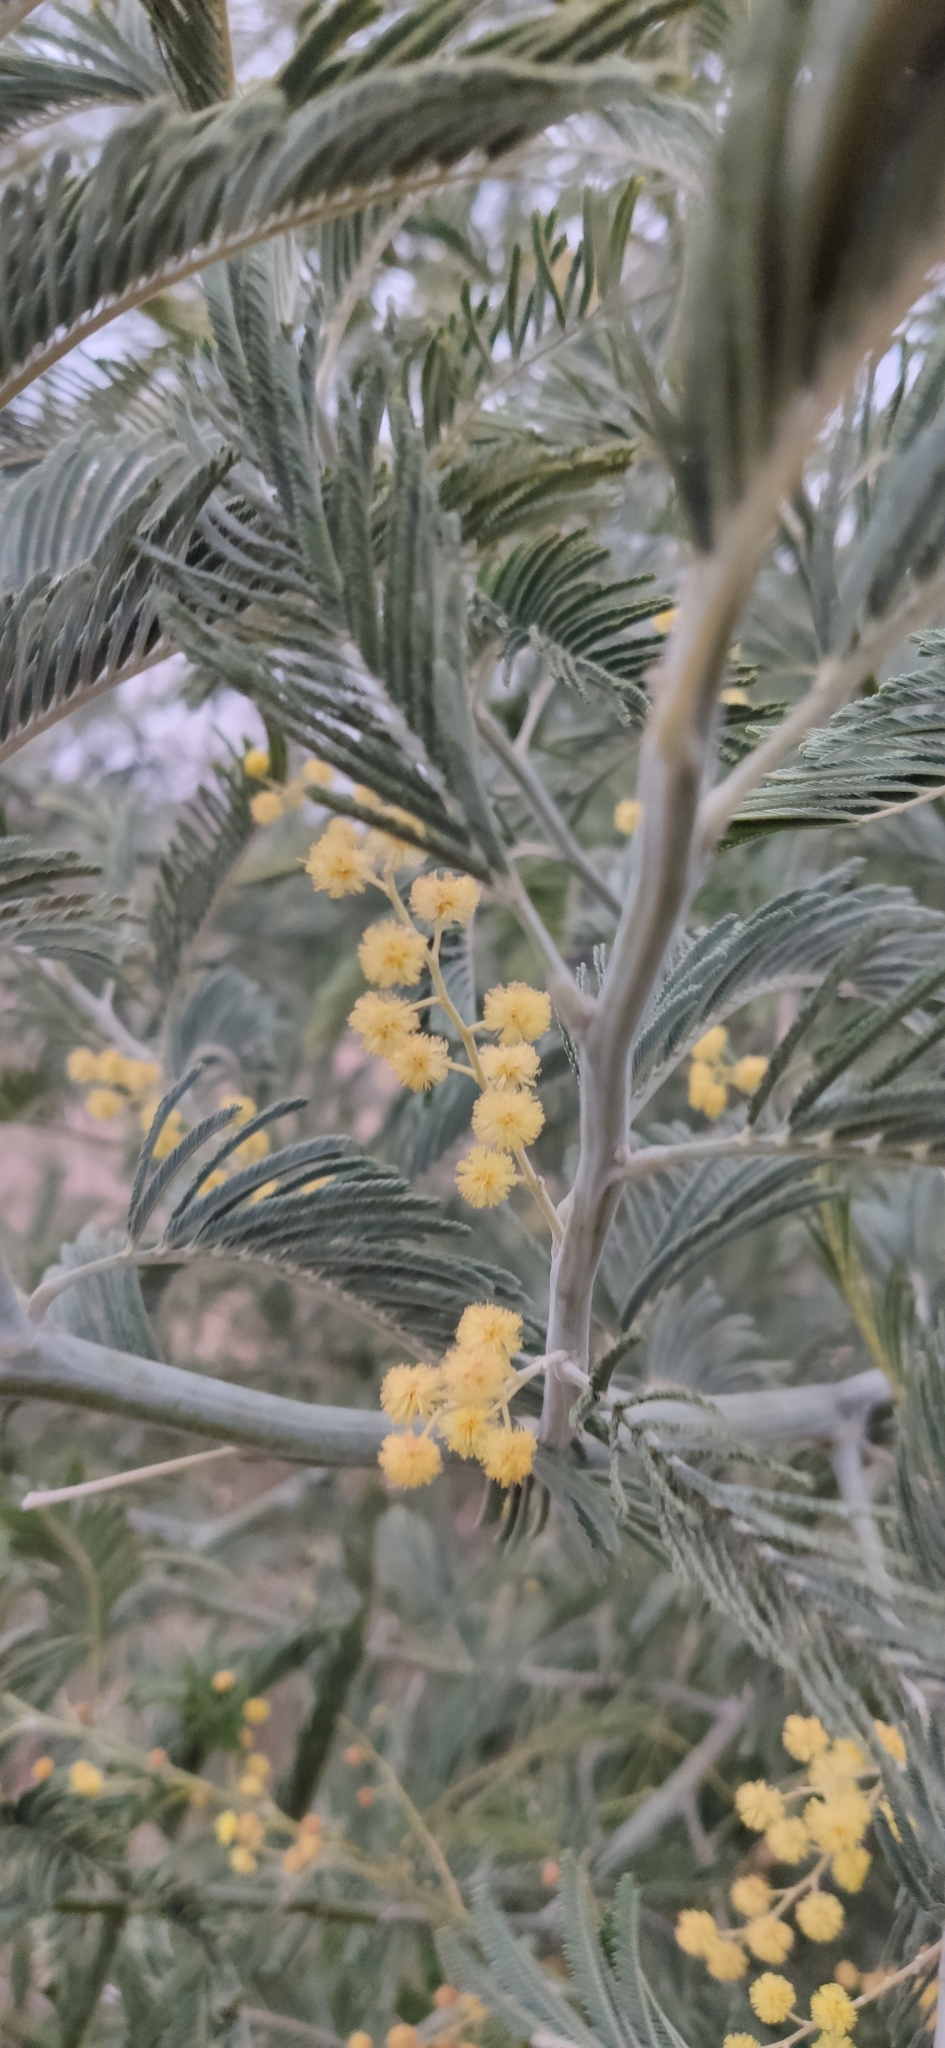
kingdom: Plantae
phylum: Tracheophyta
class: Magnoliopsida
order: Fabales
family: Fabaceae
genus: Acacia
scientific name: Acacia dealbata
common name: Silver wattle
